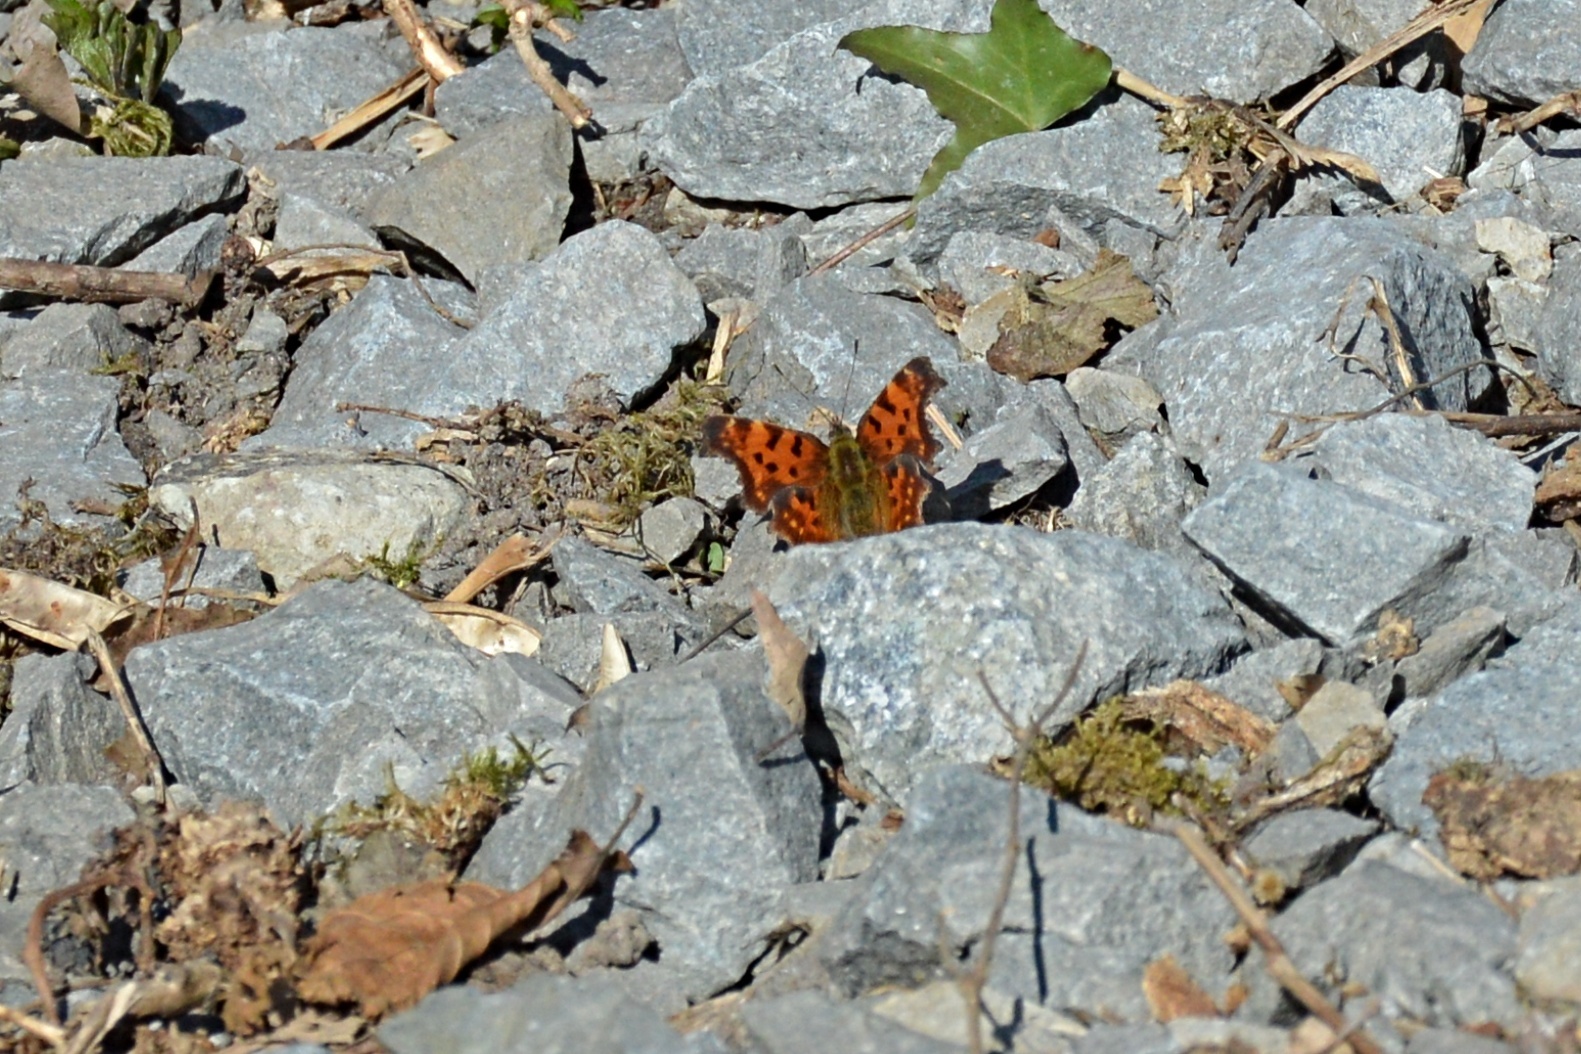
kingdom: Animalia
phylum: Arthropoda
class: Insecta
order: Lepidoptera
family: Nymphalidae
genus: Polygonia
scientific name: Polygonia c-album
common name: Comma
